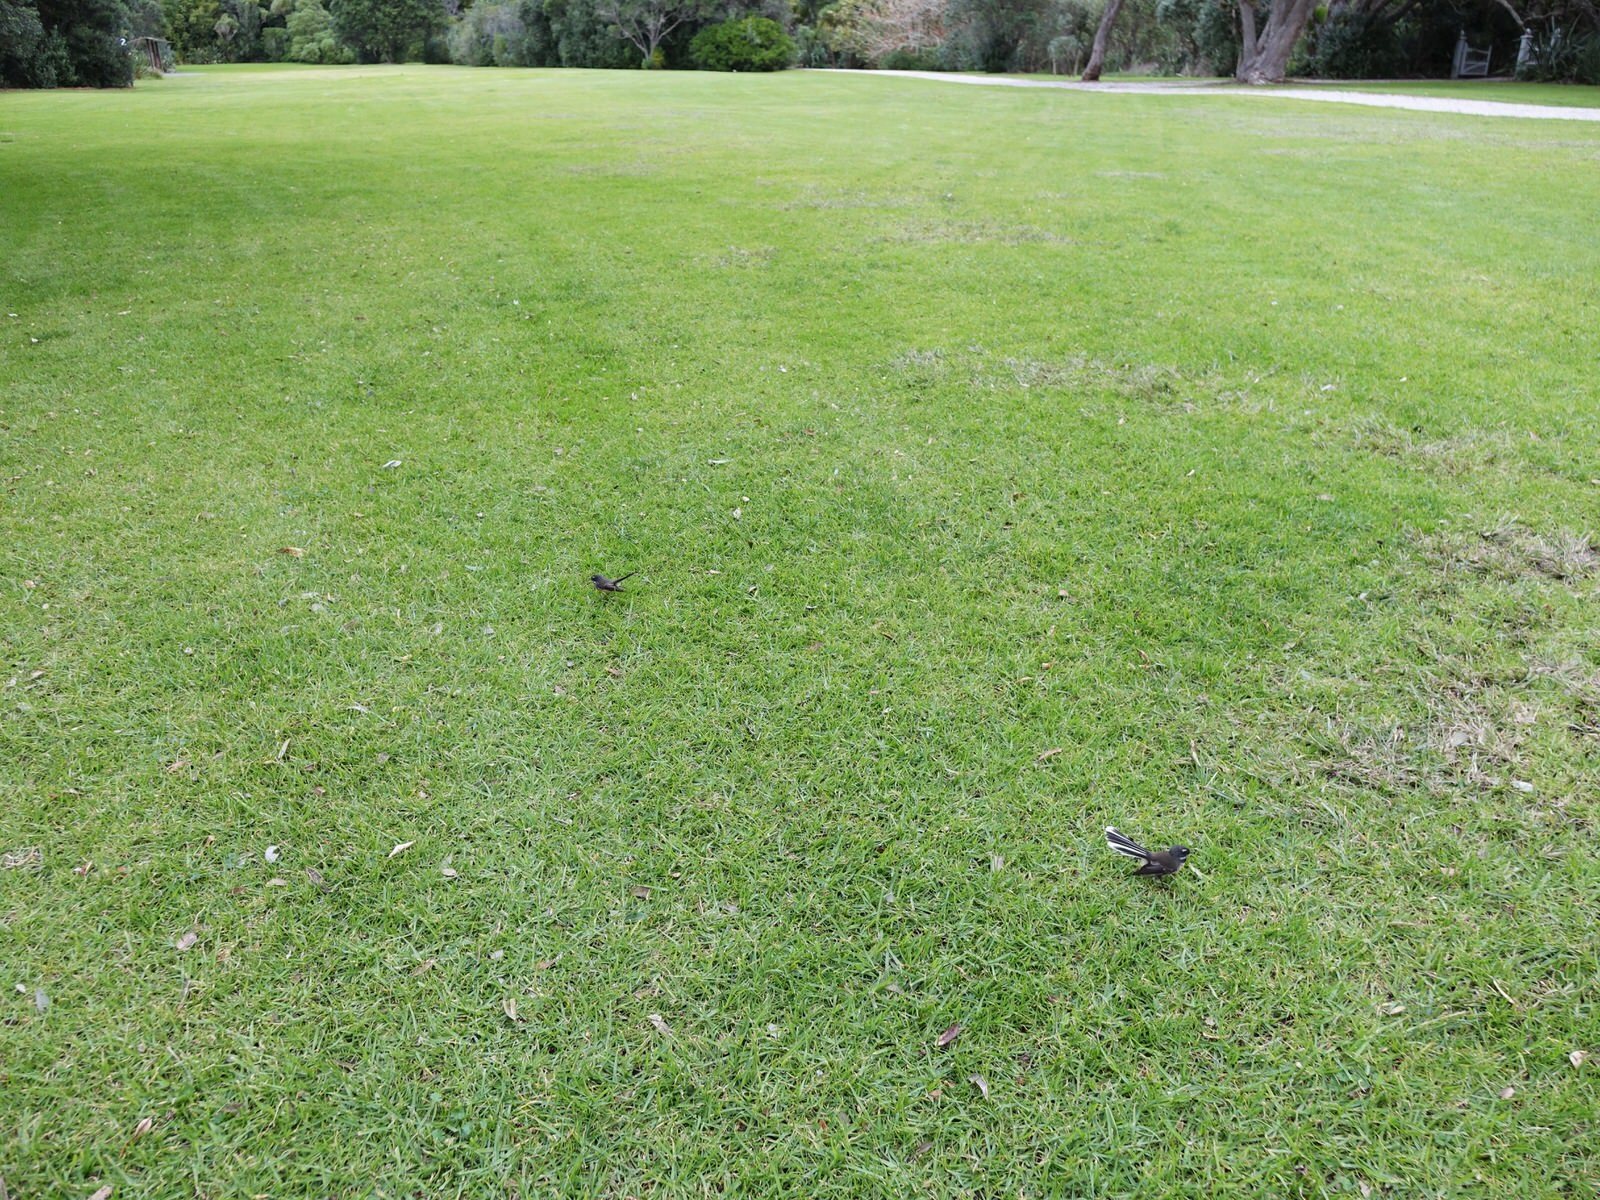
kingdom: Animalia
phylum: Chordata
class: Aves
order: Passeriformes
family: Rhipiduridae
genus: Rhipidura
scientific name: Rhipidura fuliginosa
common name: New zealand fantail
